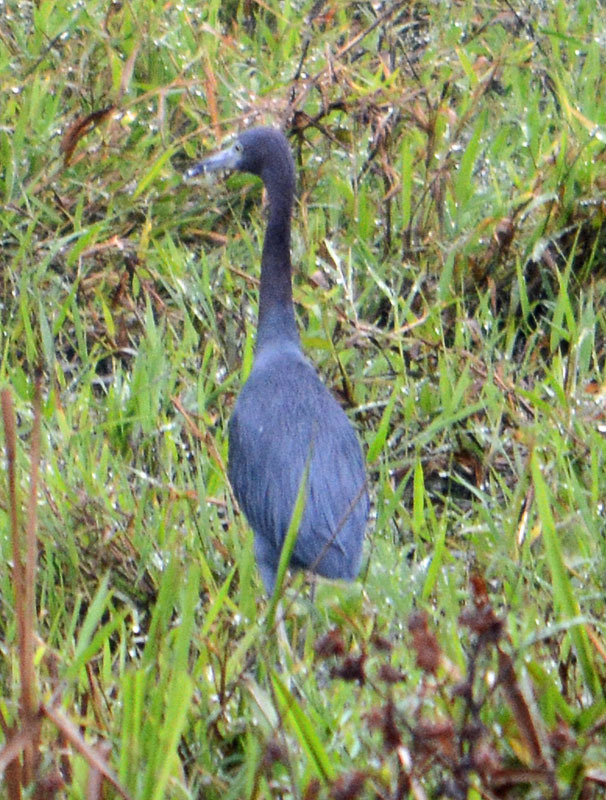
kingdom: Animalia
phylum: Chordata
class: Aves
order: Pelecaniformes
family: Ardeidae
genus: Egretta
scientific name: Egretta caerulea
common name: Little blue heron
